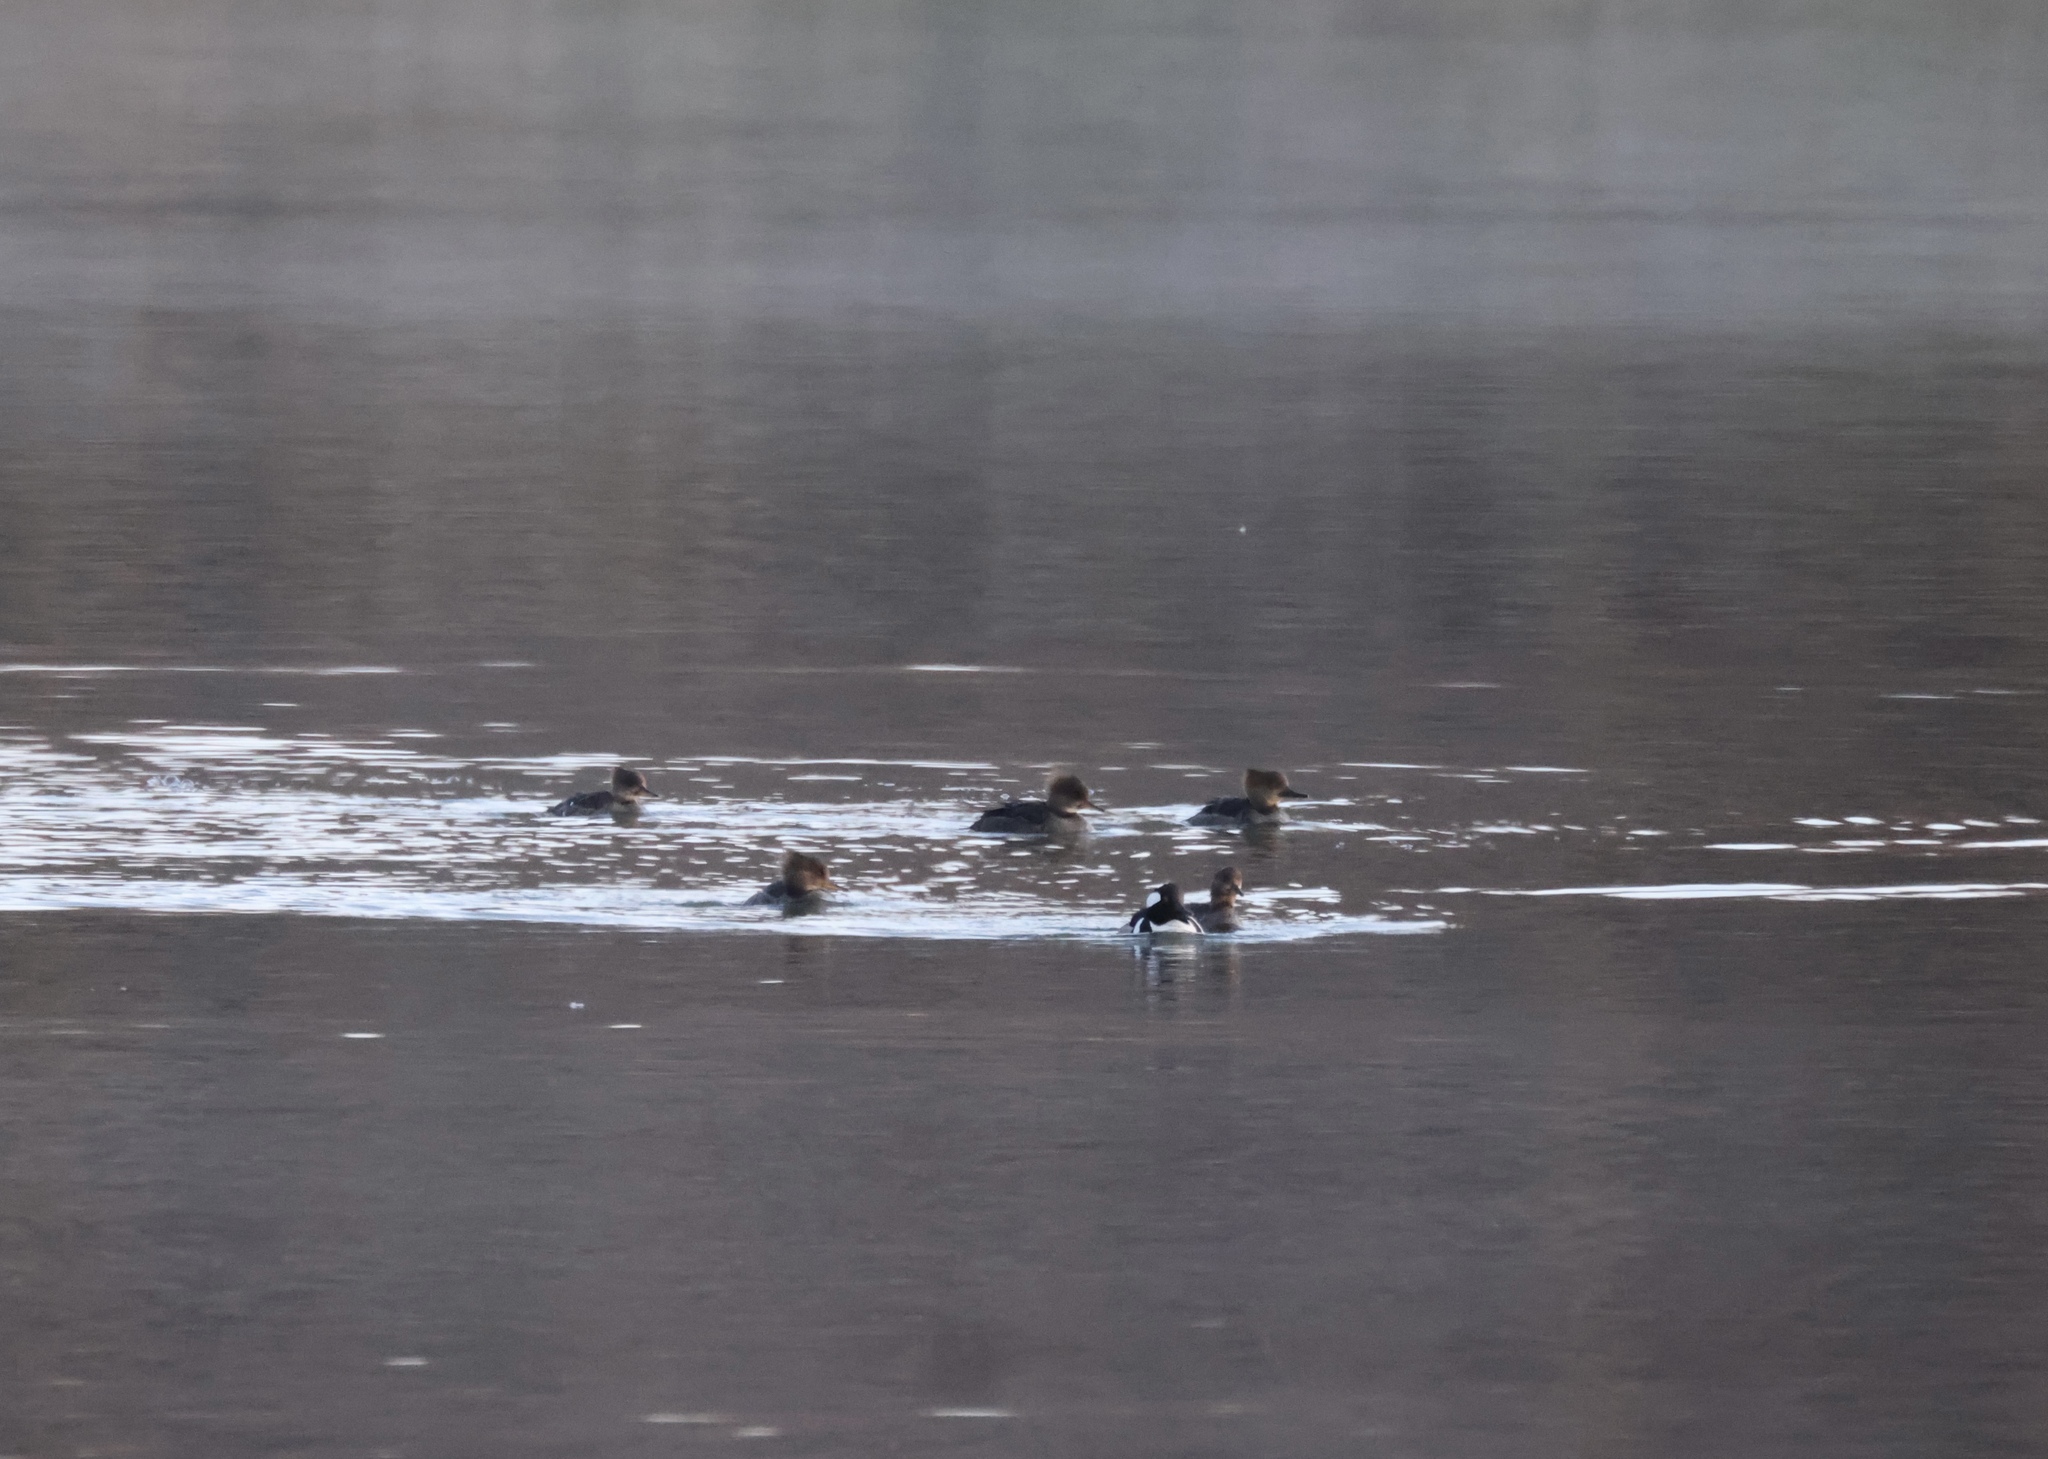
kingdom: Animalia
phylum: Chordata
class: Aves
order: Anseriformes
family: Anatidae
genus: Lophodytes
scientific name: Lophodytes cucullatus
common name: Hooded merganser
